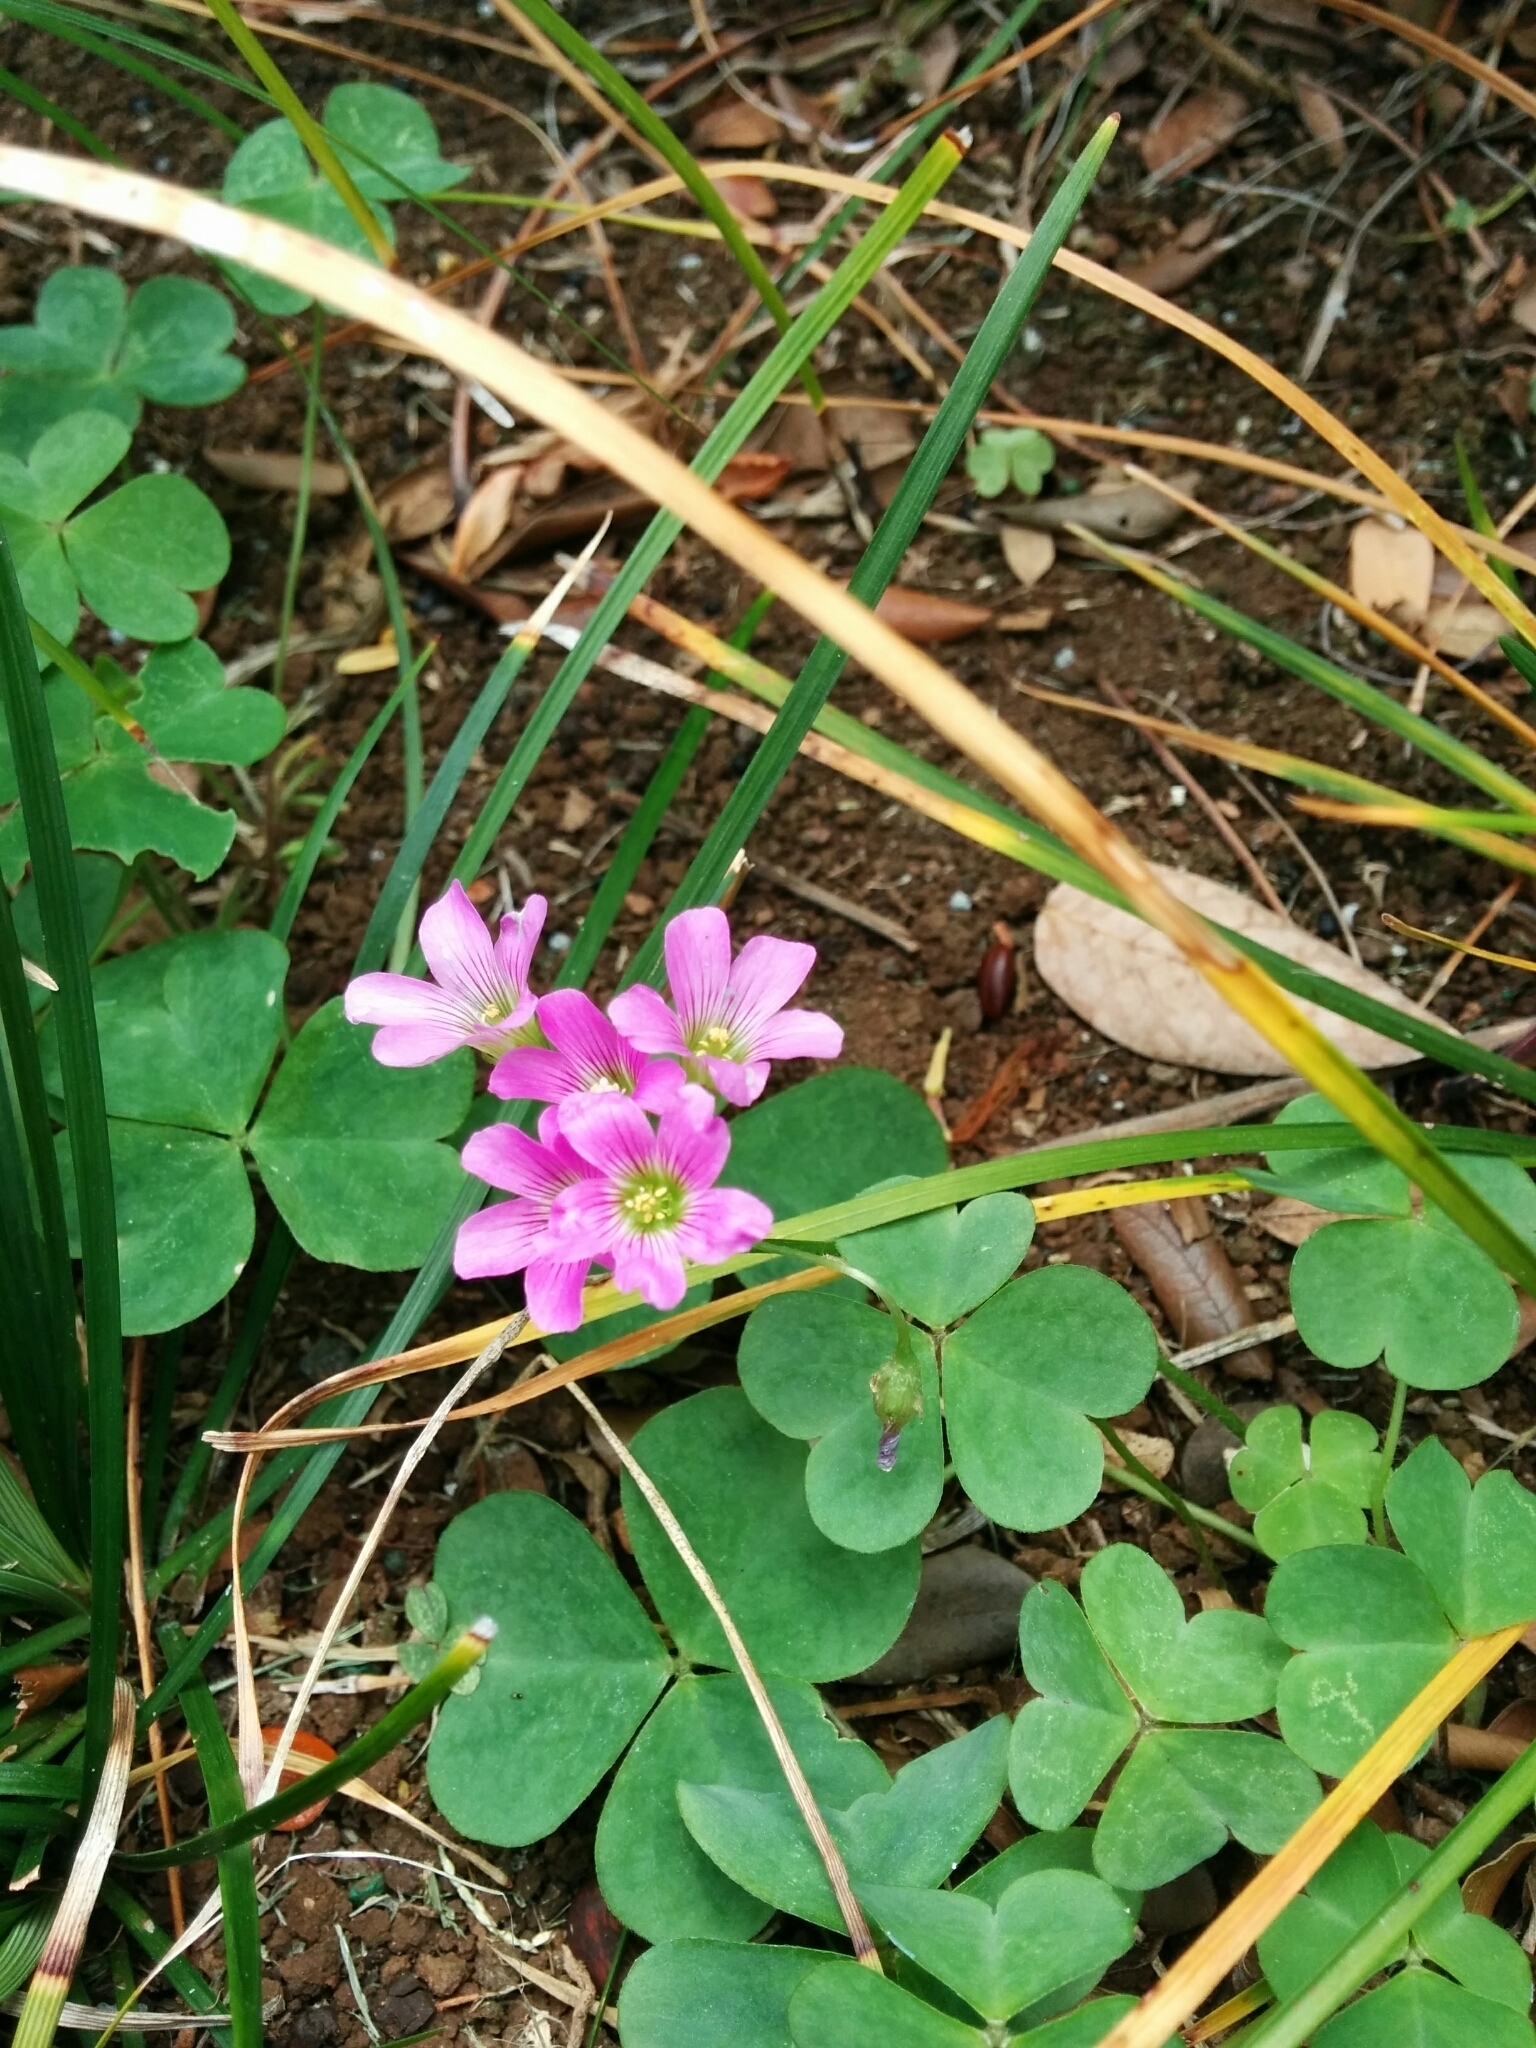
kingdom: Plantae
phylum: Tracheophyta
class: Magnoliopsida
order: Oxalidales
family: Oxalidaceae
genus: Oxalis
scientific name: Oxalis debilis
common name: Large-flowered pink-sorrel
